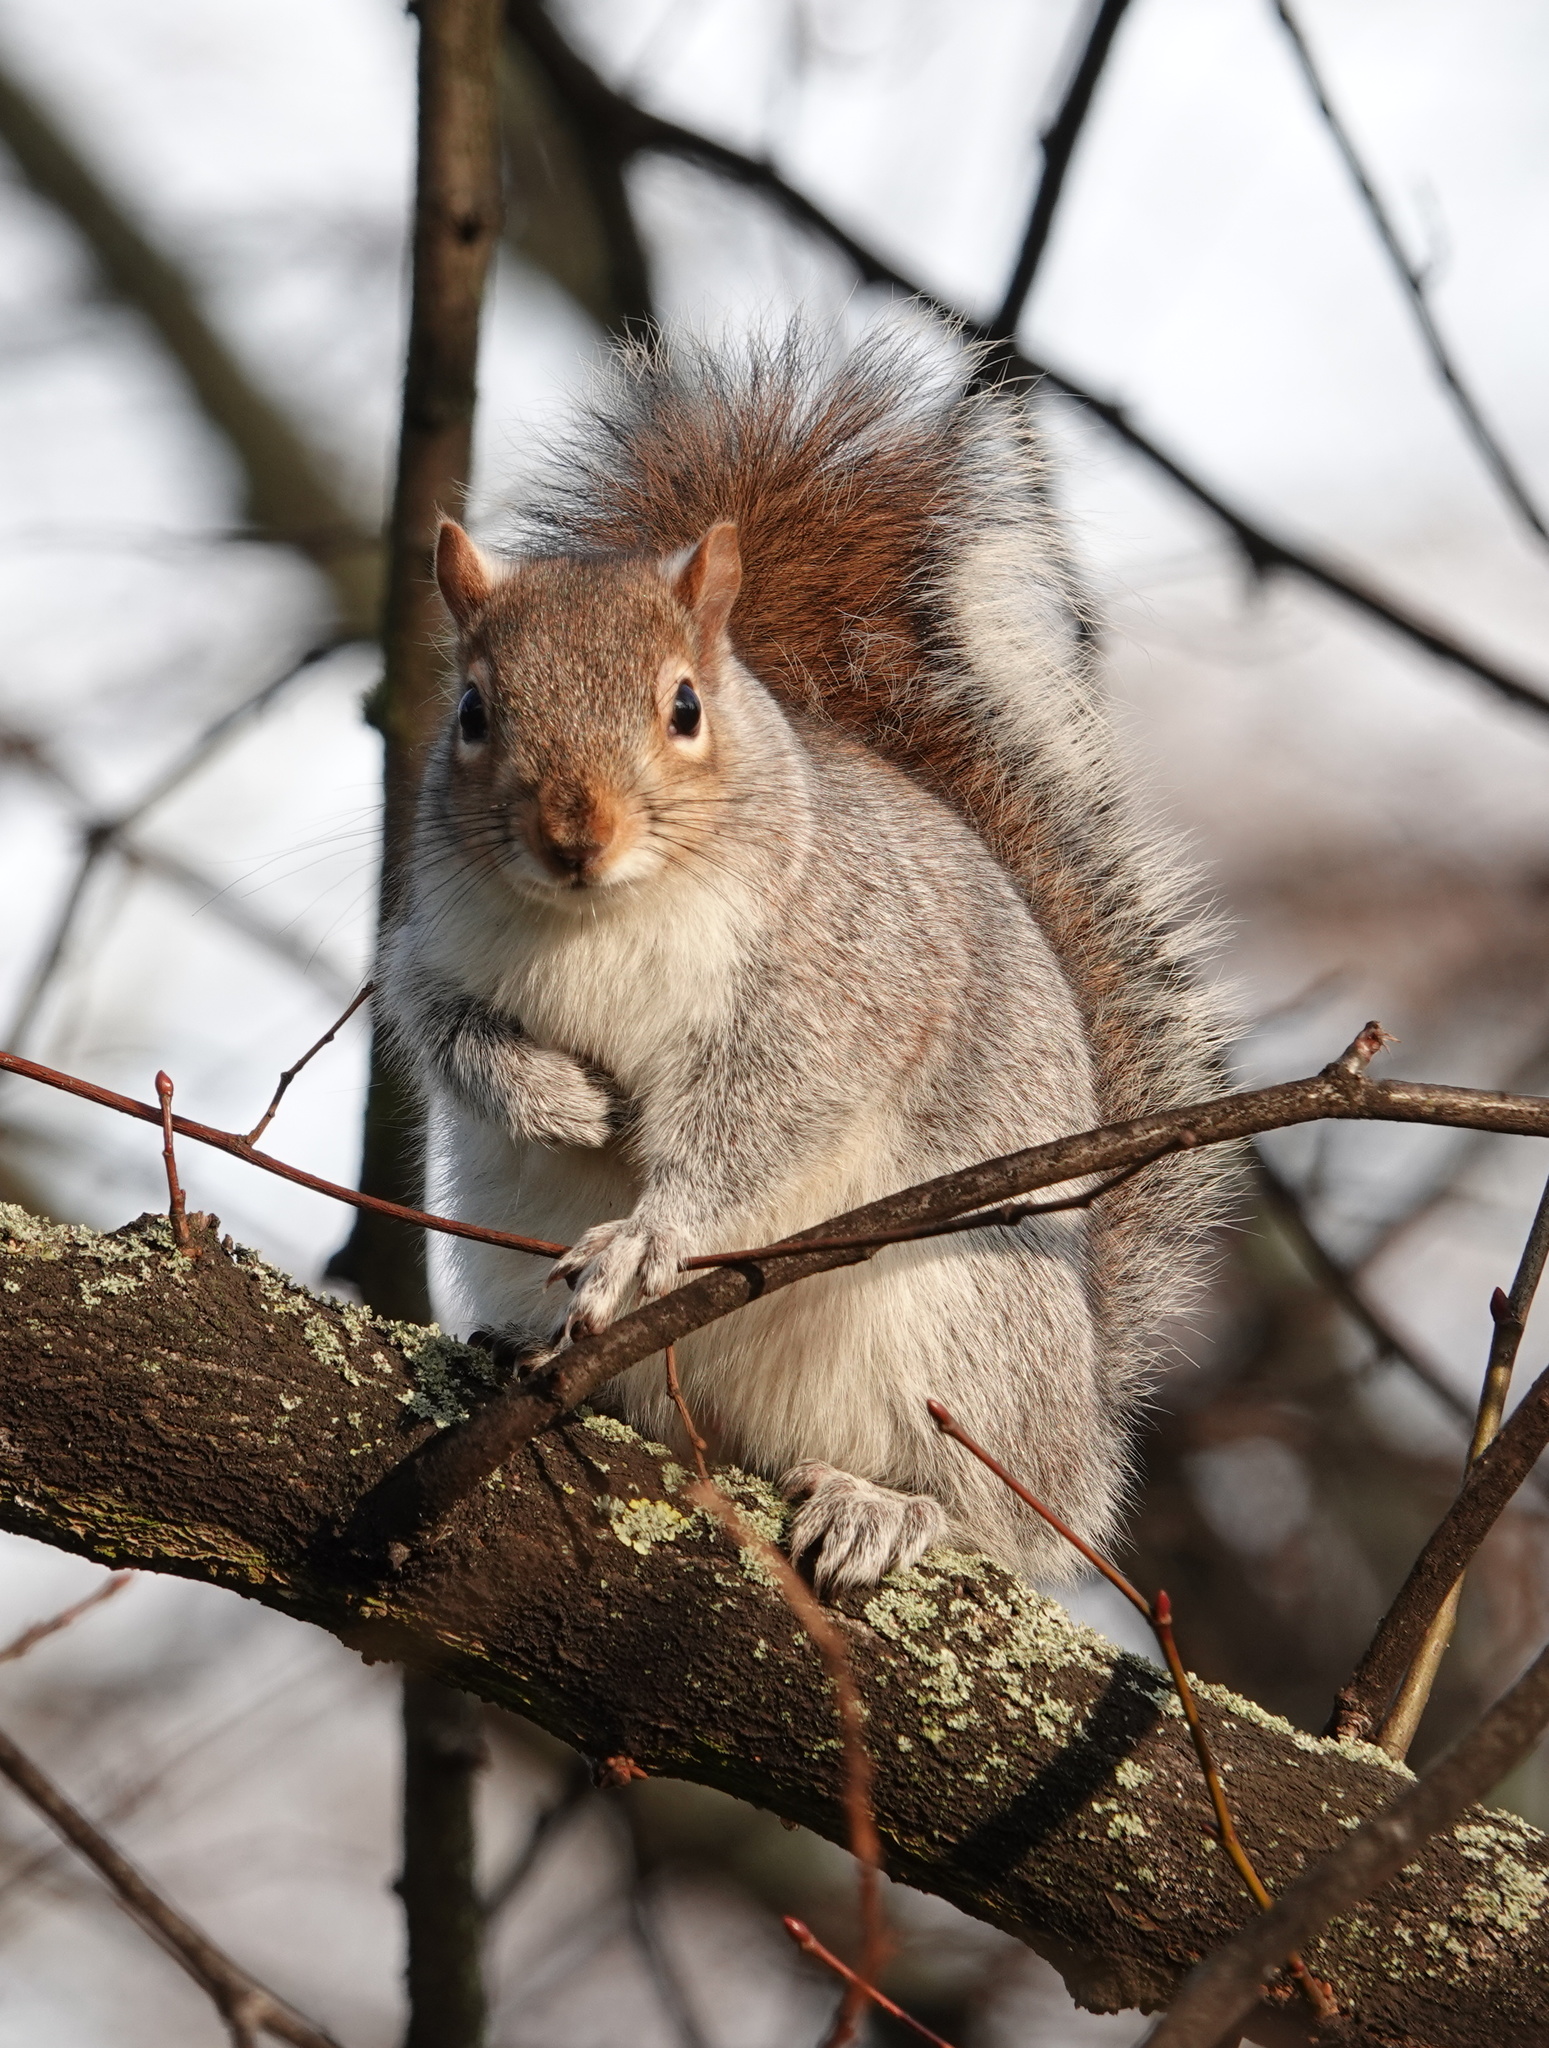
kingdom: Animalia
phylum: Chordata
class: Mammalia
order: Rodentia
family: Sciuridae
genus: Sciurus
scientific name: Sciurus carolinensis
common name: Eastern gray squirrel
